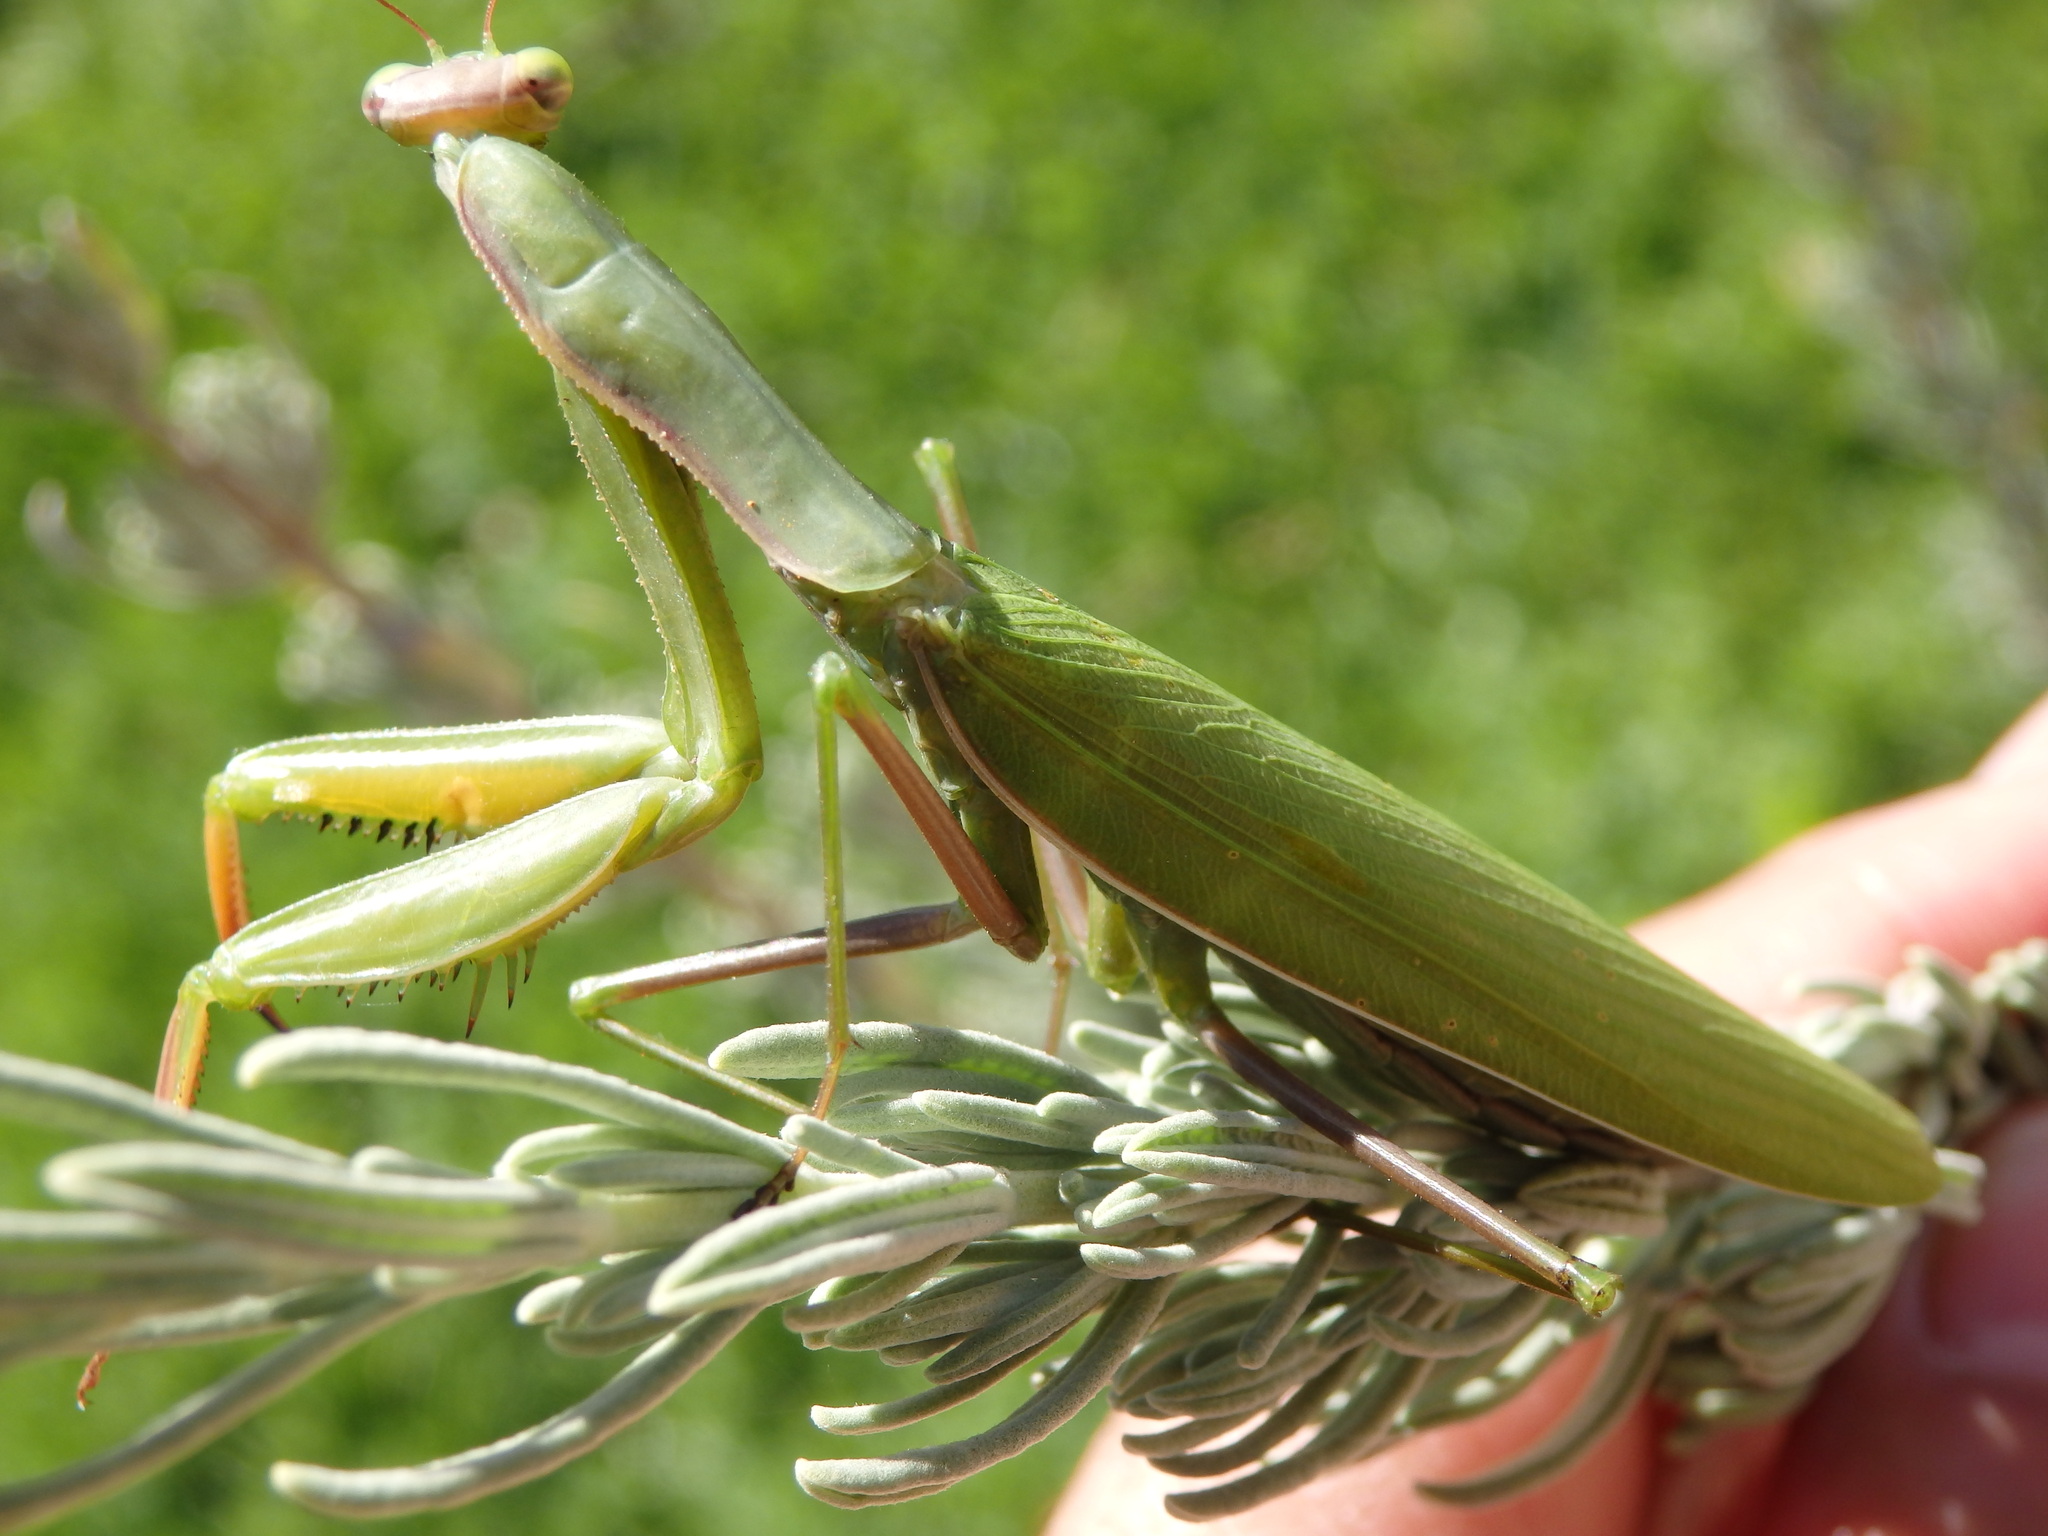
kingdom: Animalia
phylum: Arthropoda
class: Insecta
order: Mantodea
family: Mantidae
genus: Mantis
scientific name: Mantis religiosa
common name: Praying mantis
